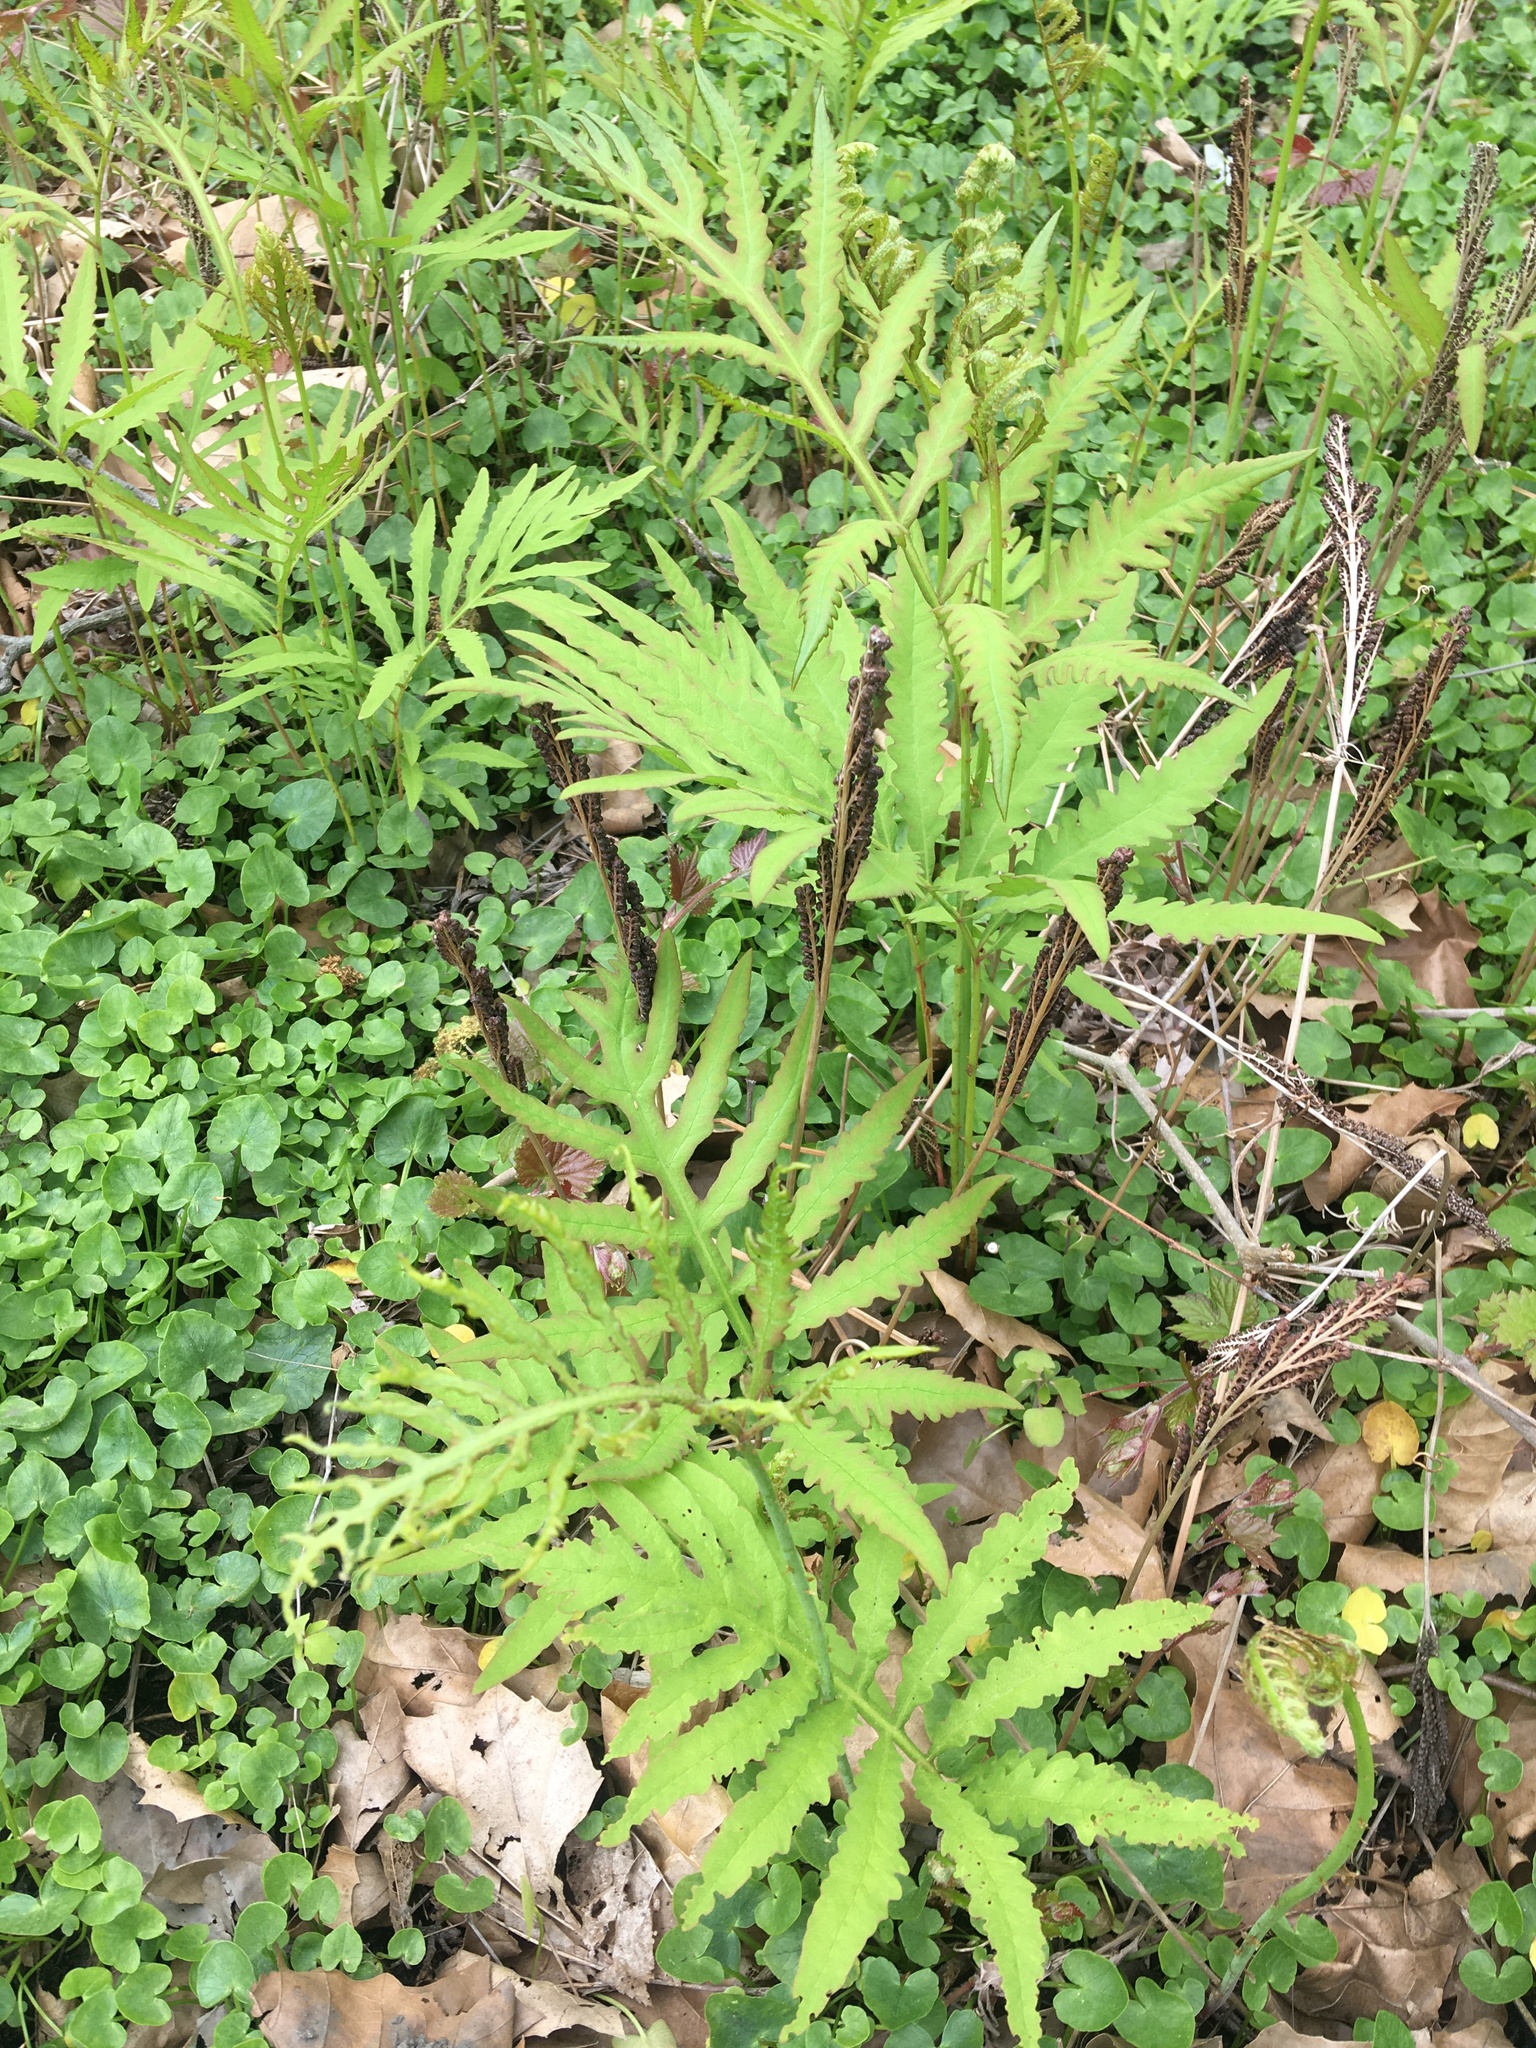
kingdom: Plantae
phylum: Tracheophyta
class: Polypodiopsida
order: Polypodiales
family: Onocleaceae
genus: Onoclea
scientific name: Onoclea sensibilis
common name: Sensitive fern
